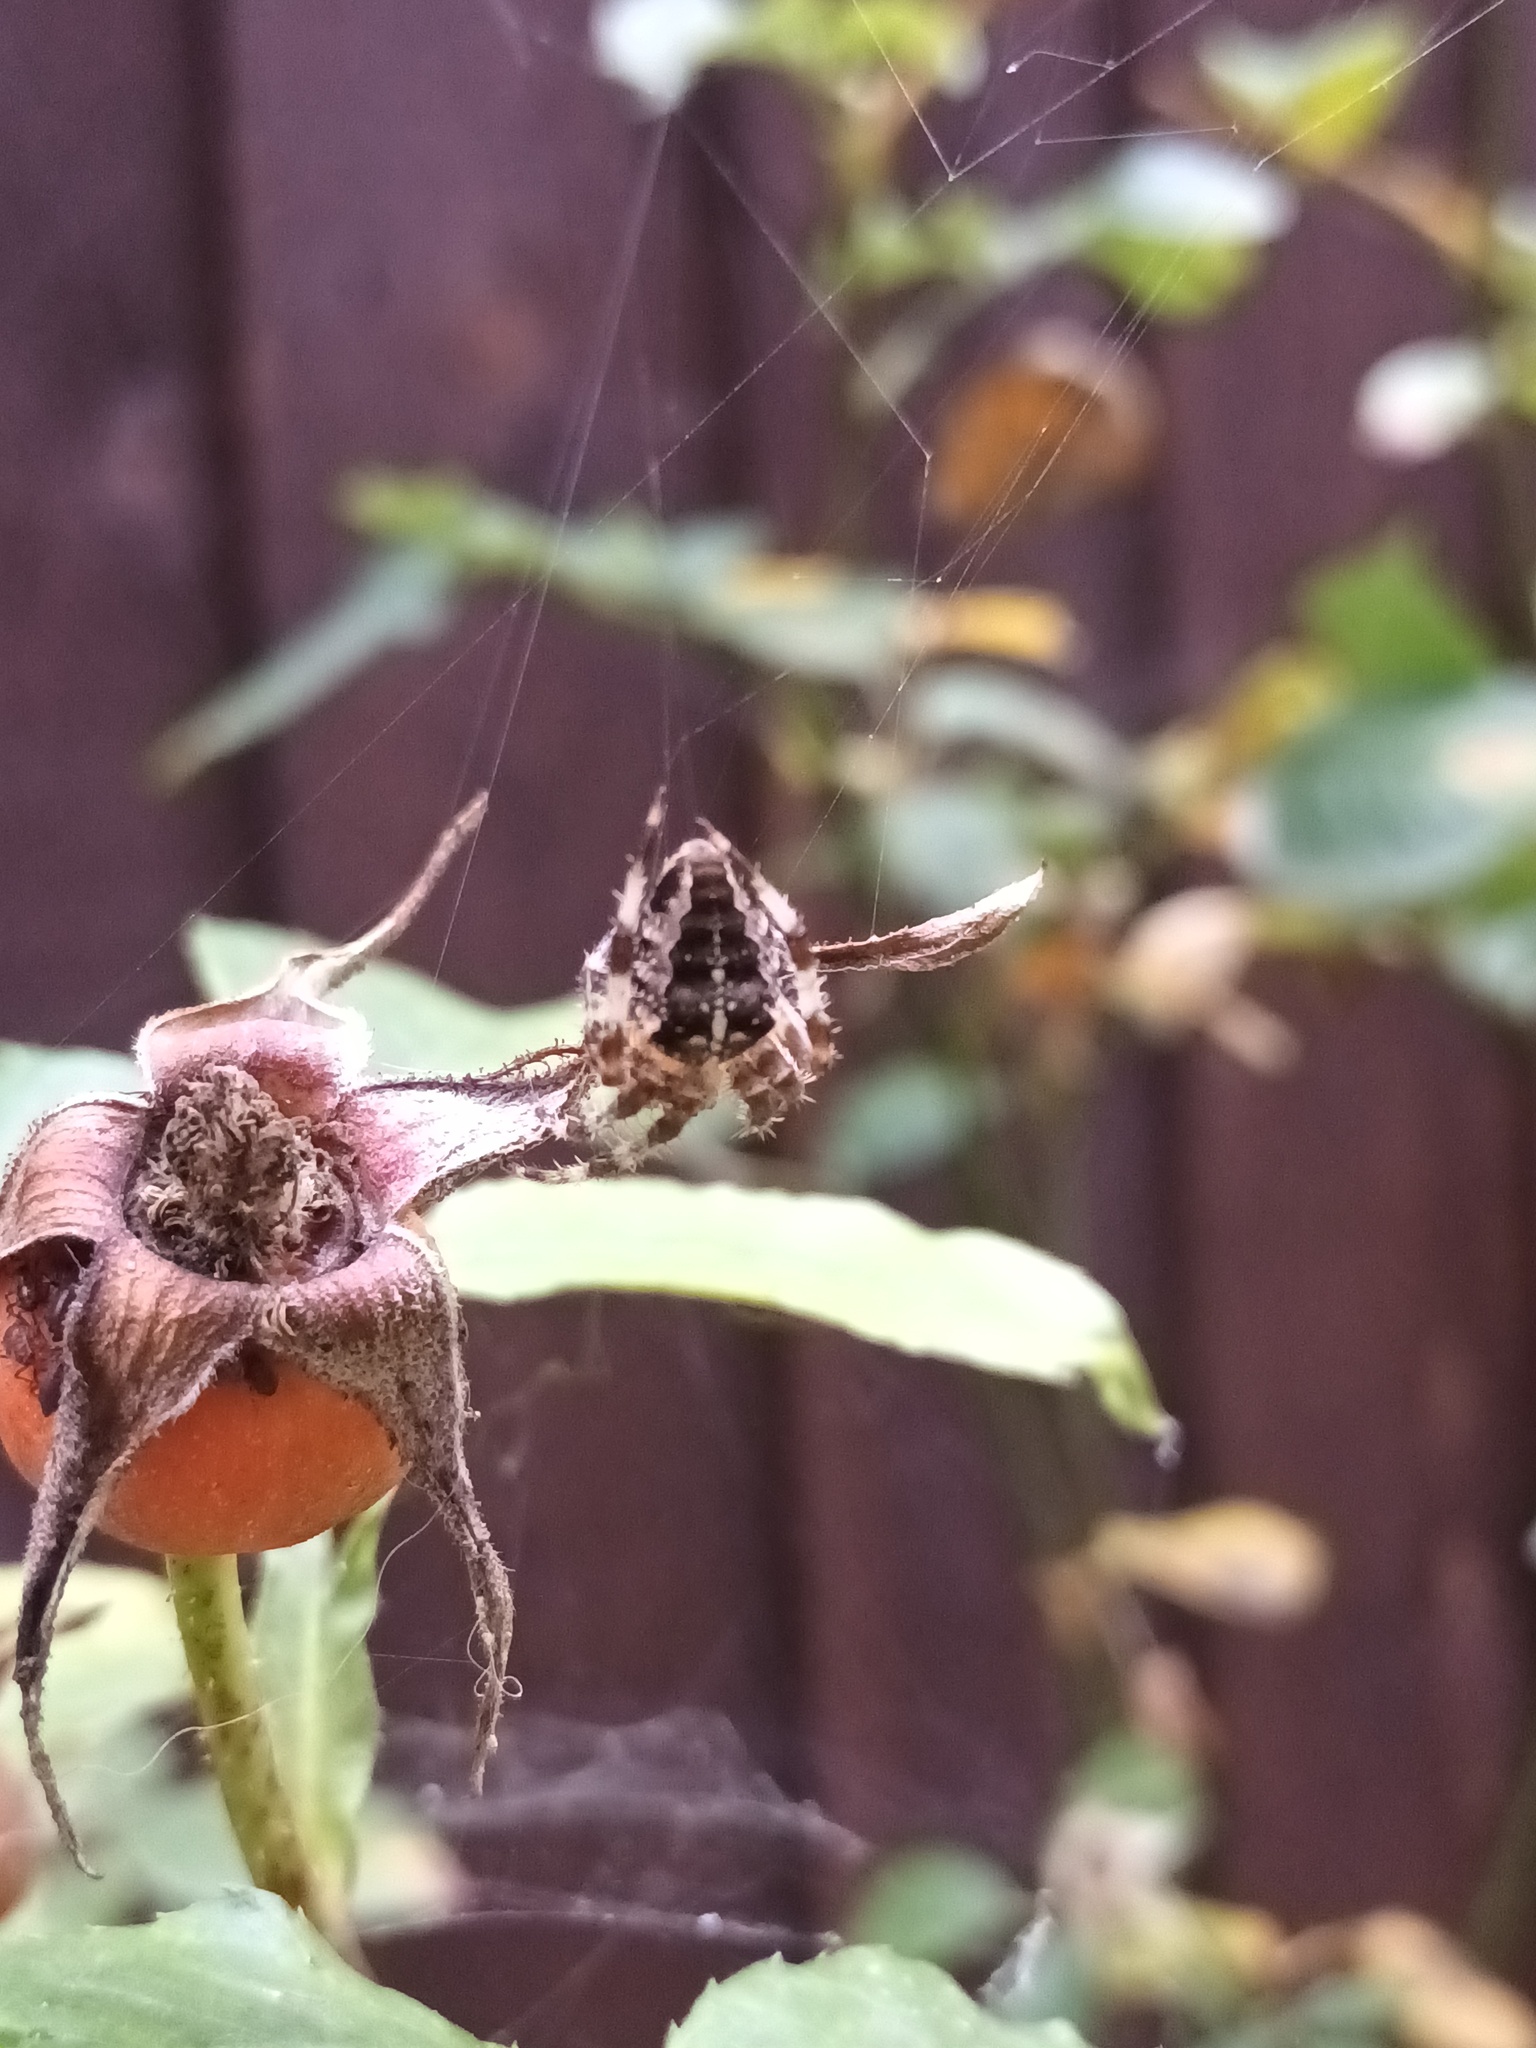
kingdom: Animalia
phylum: Arthropoda
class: Arachnida
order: Araneae
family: Araneidae
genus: Araneus
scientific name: Araneus diadematus
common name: Cross orbweaver
